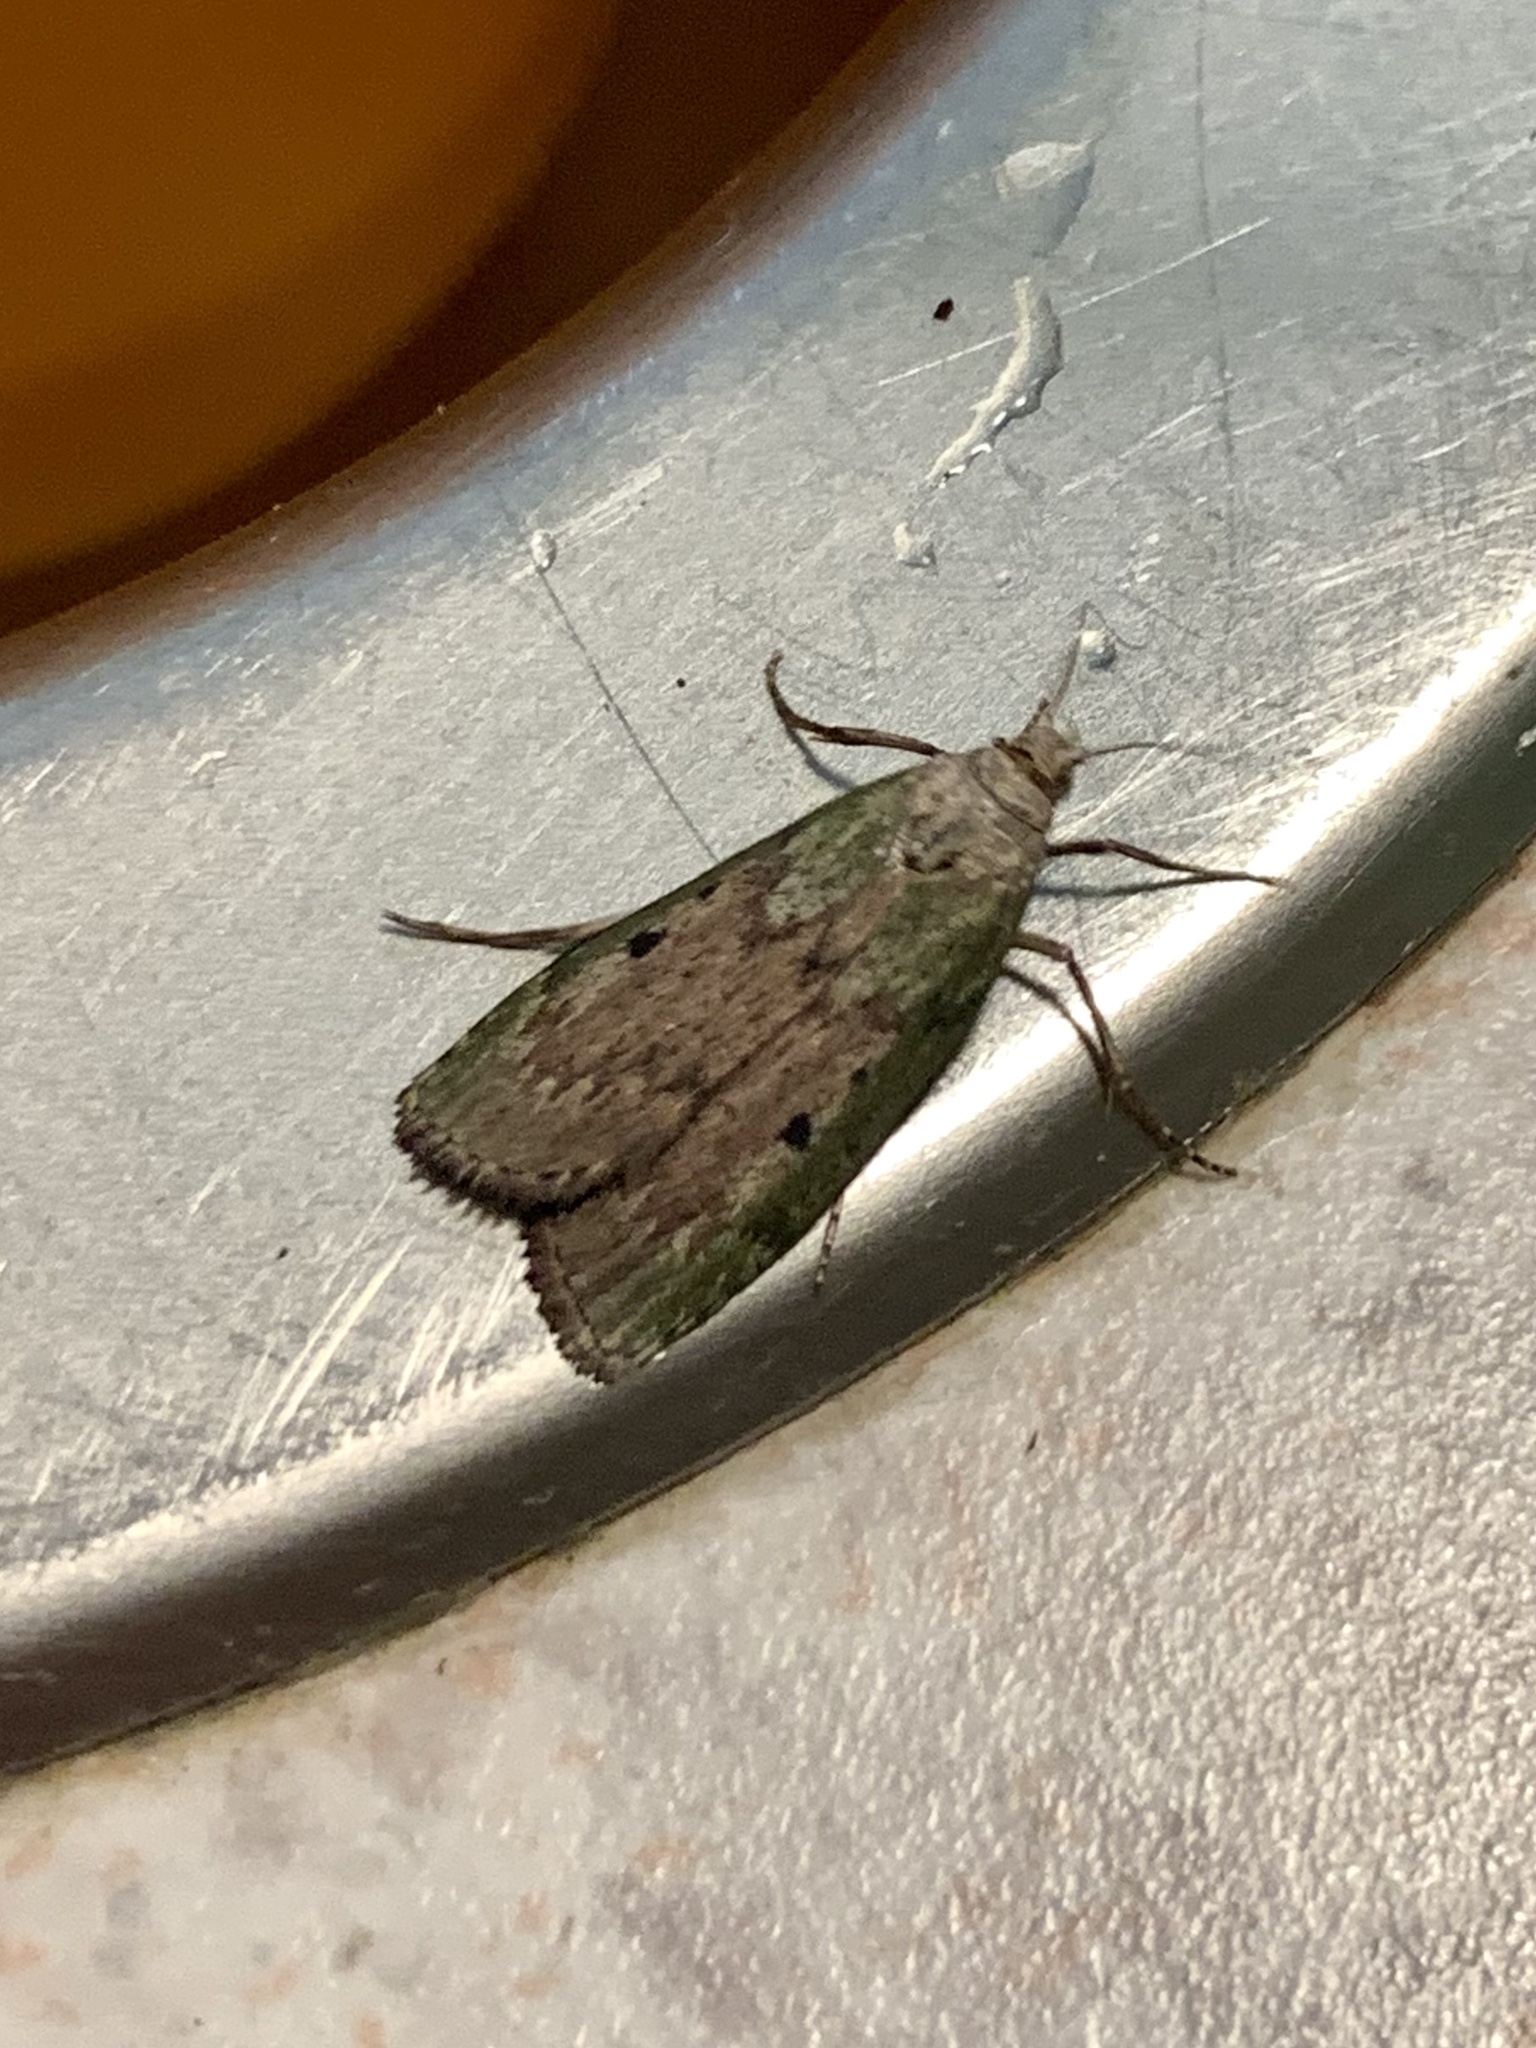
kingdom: Animalia
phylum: Arthropoda
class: Insecta
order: Lepidoptera
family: Pyralidae
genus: Aphomia
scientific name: Aphomia sociella
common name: Bee moth
